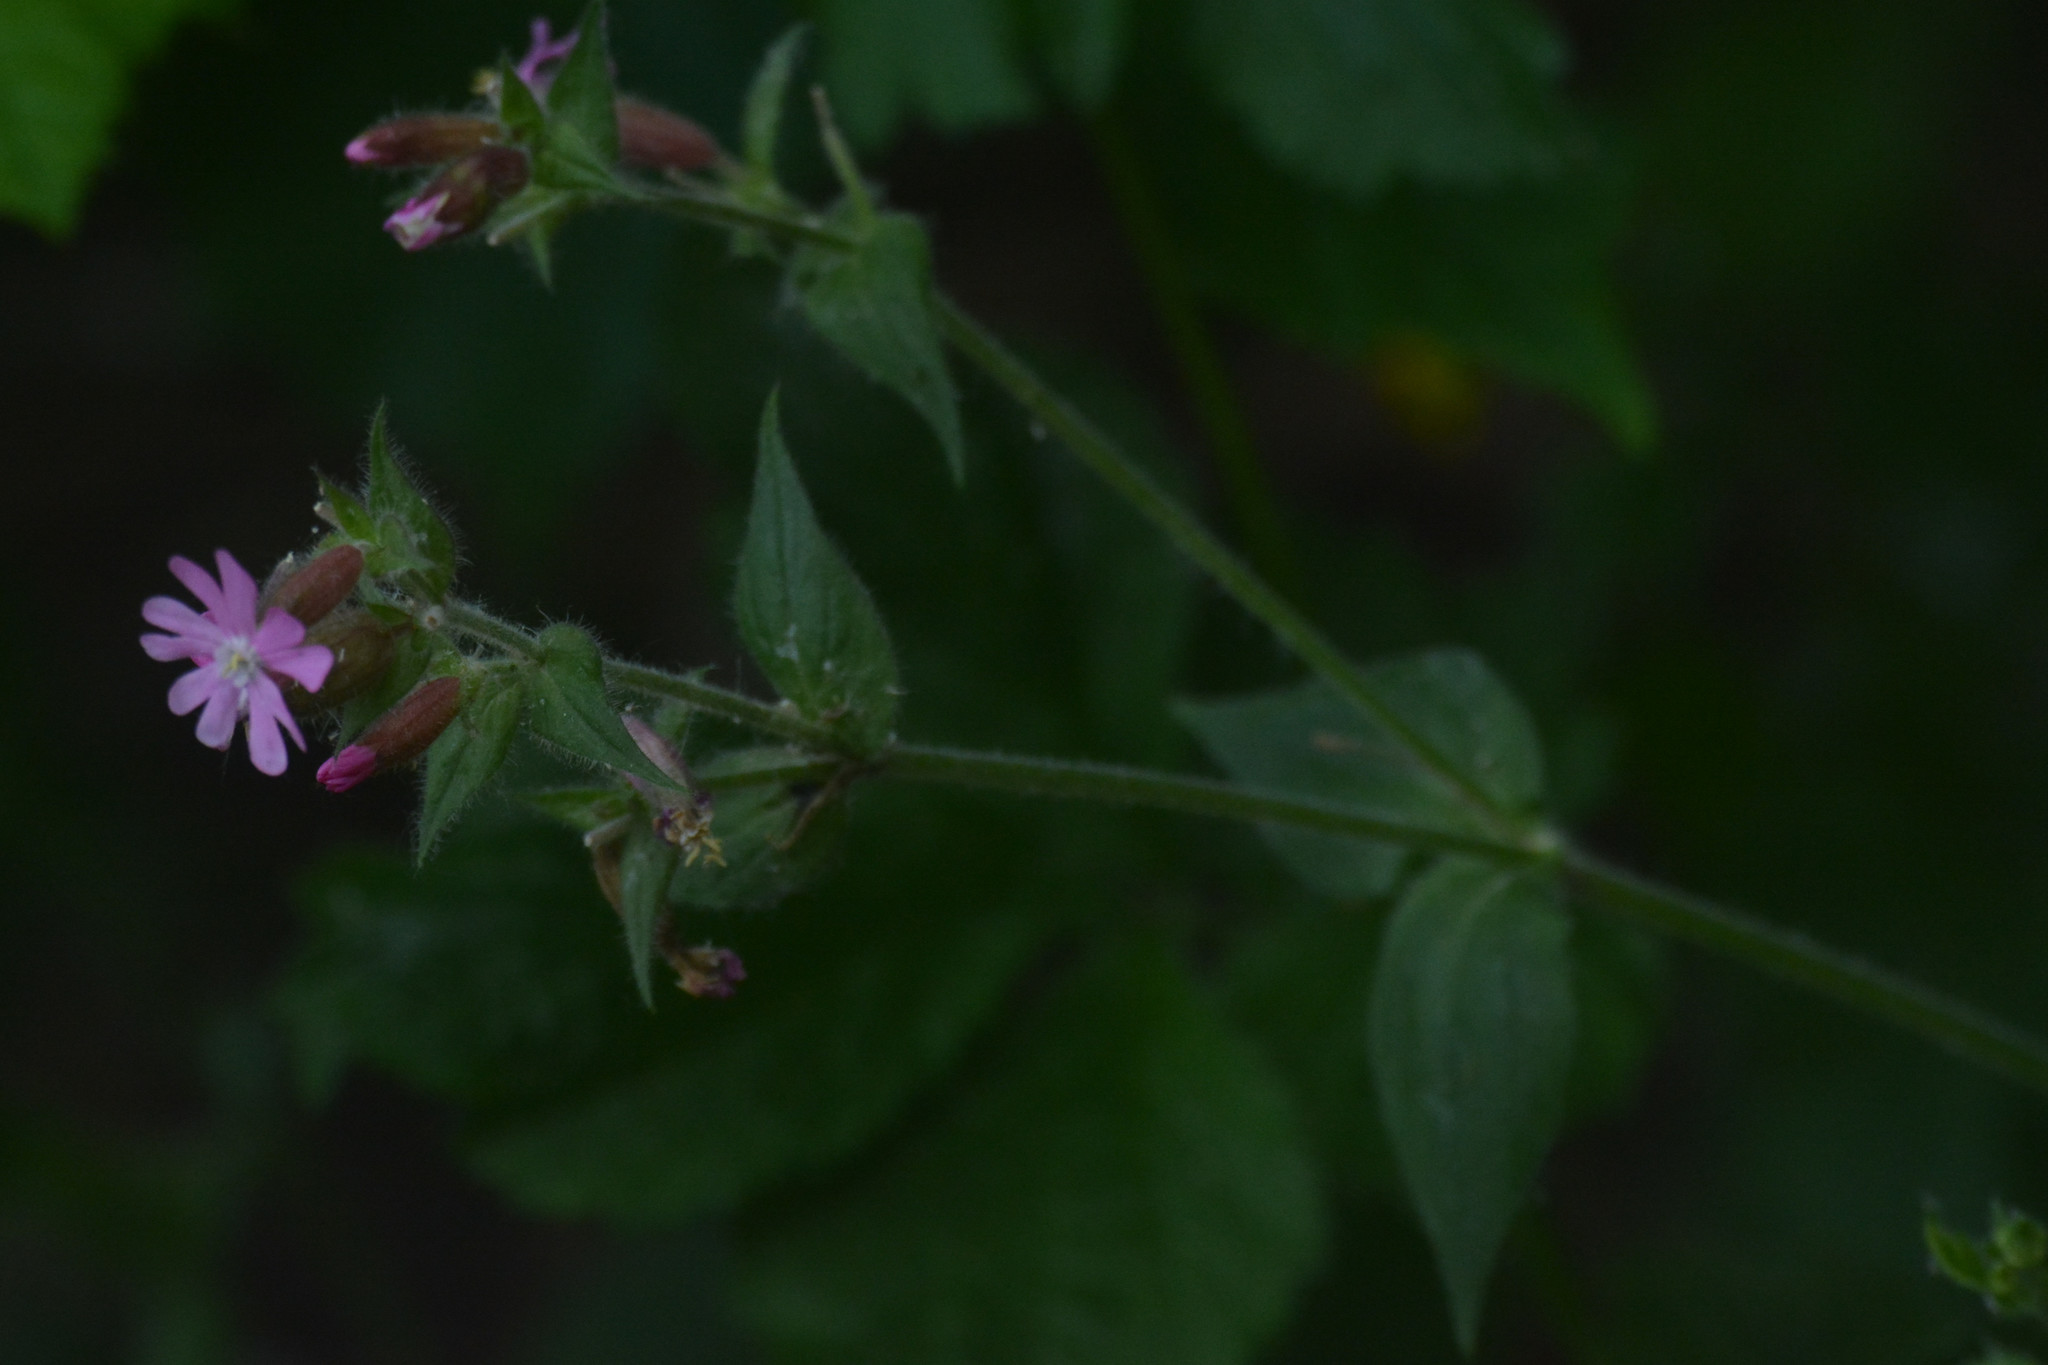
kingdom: Plantae
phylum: Tracheophyta
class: Magnoliopsida
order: Caryophyllales
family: Caryophyllaceae
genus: Silene
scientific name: Silene dioica
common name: Red campion
